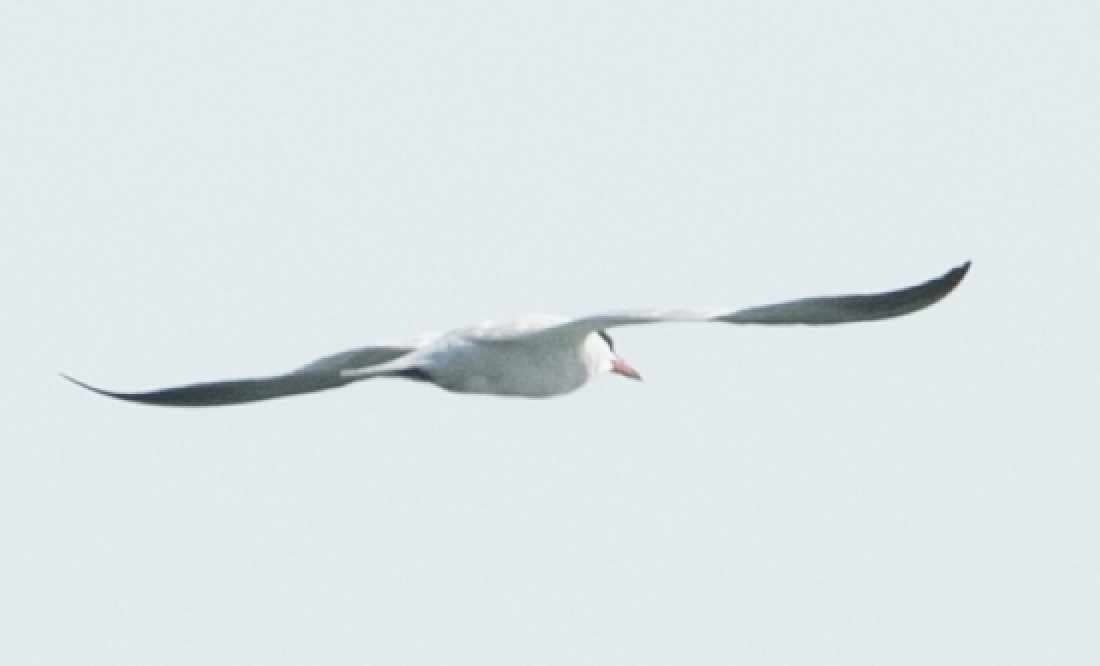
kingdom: Animalia
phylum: Chordata
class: Aves
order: Charadriiformes
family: Laridae
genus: Hydroprogne
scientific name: Hydroprogne caspia
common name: Caspian tern
